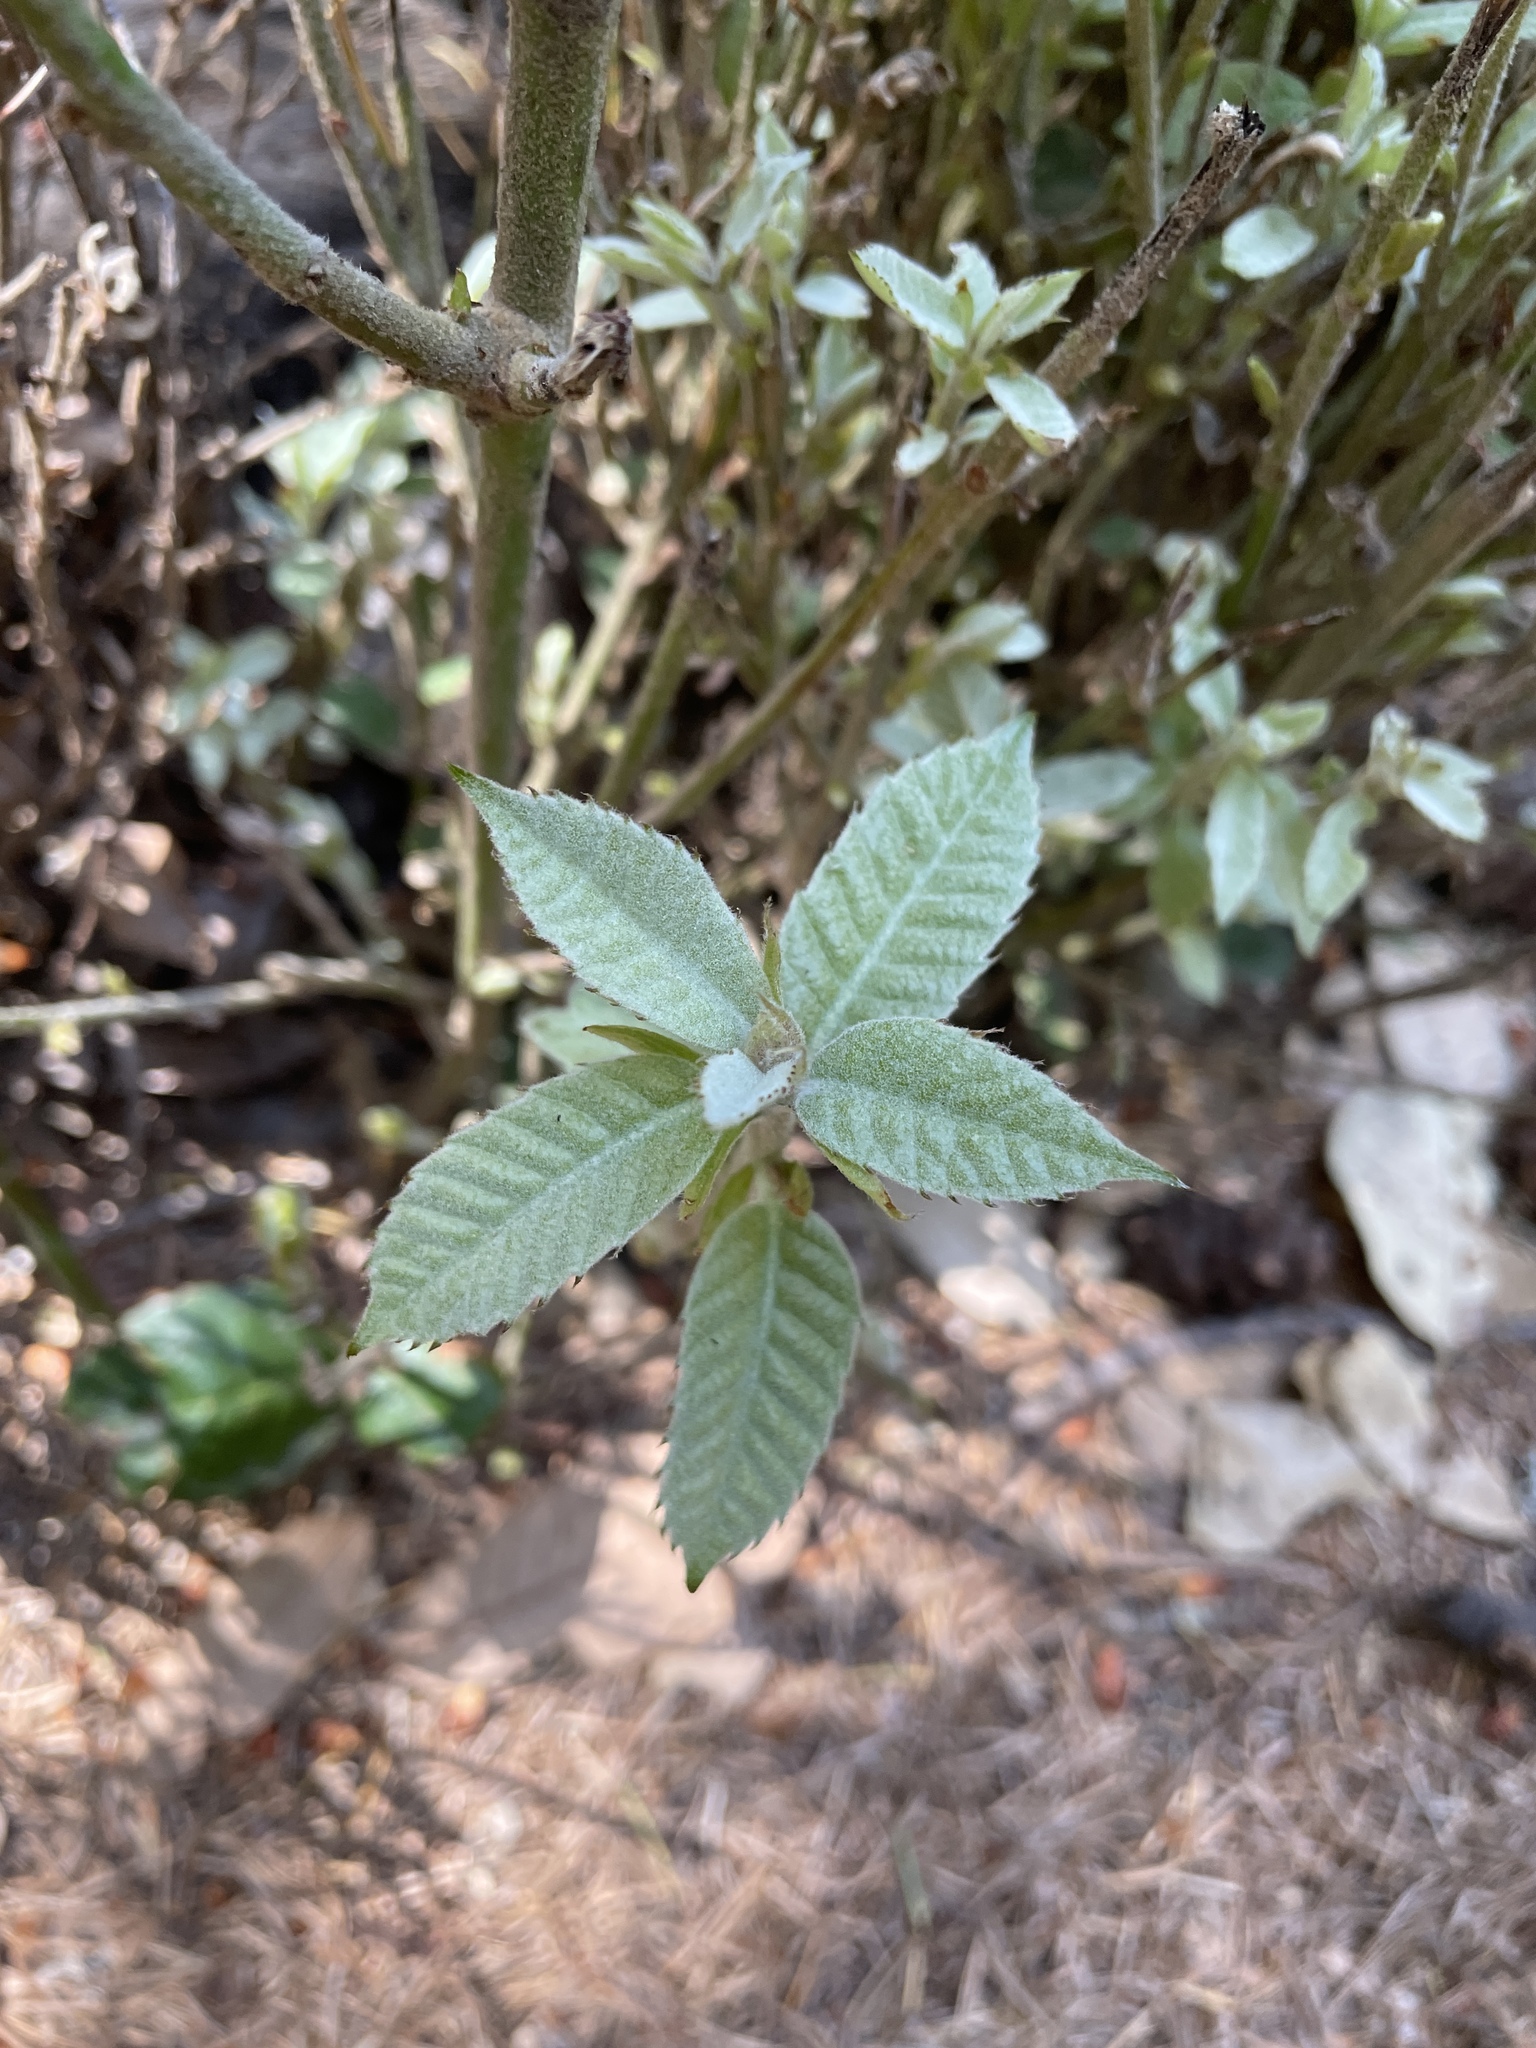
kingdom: Plantae
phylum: Tracheophyta
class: Magnoliopsida
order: Fagales
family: Fagaceae
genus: Notholithocarpus
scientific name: Notholithocarpus densiflorus
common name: Tan bark oak
